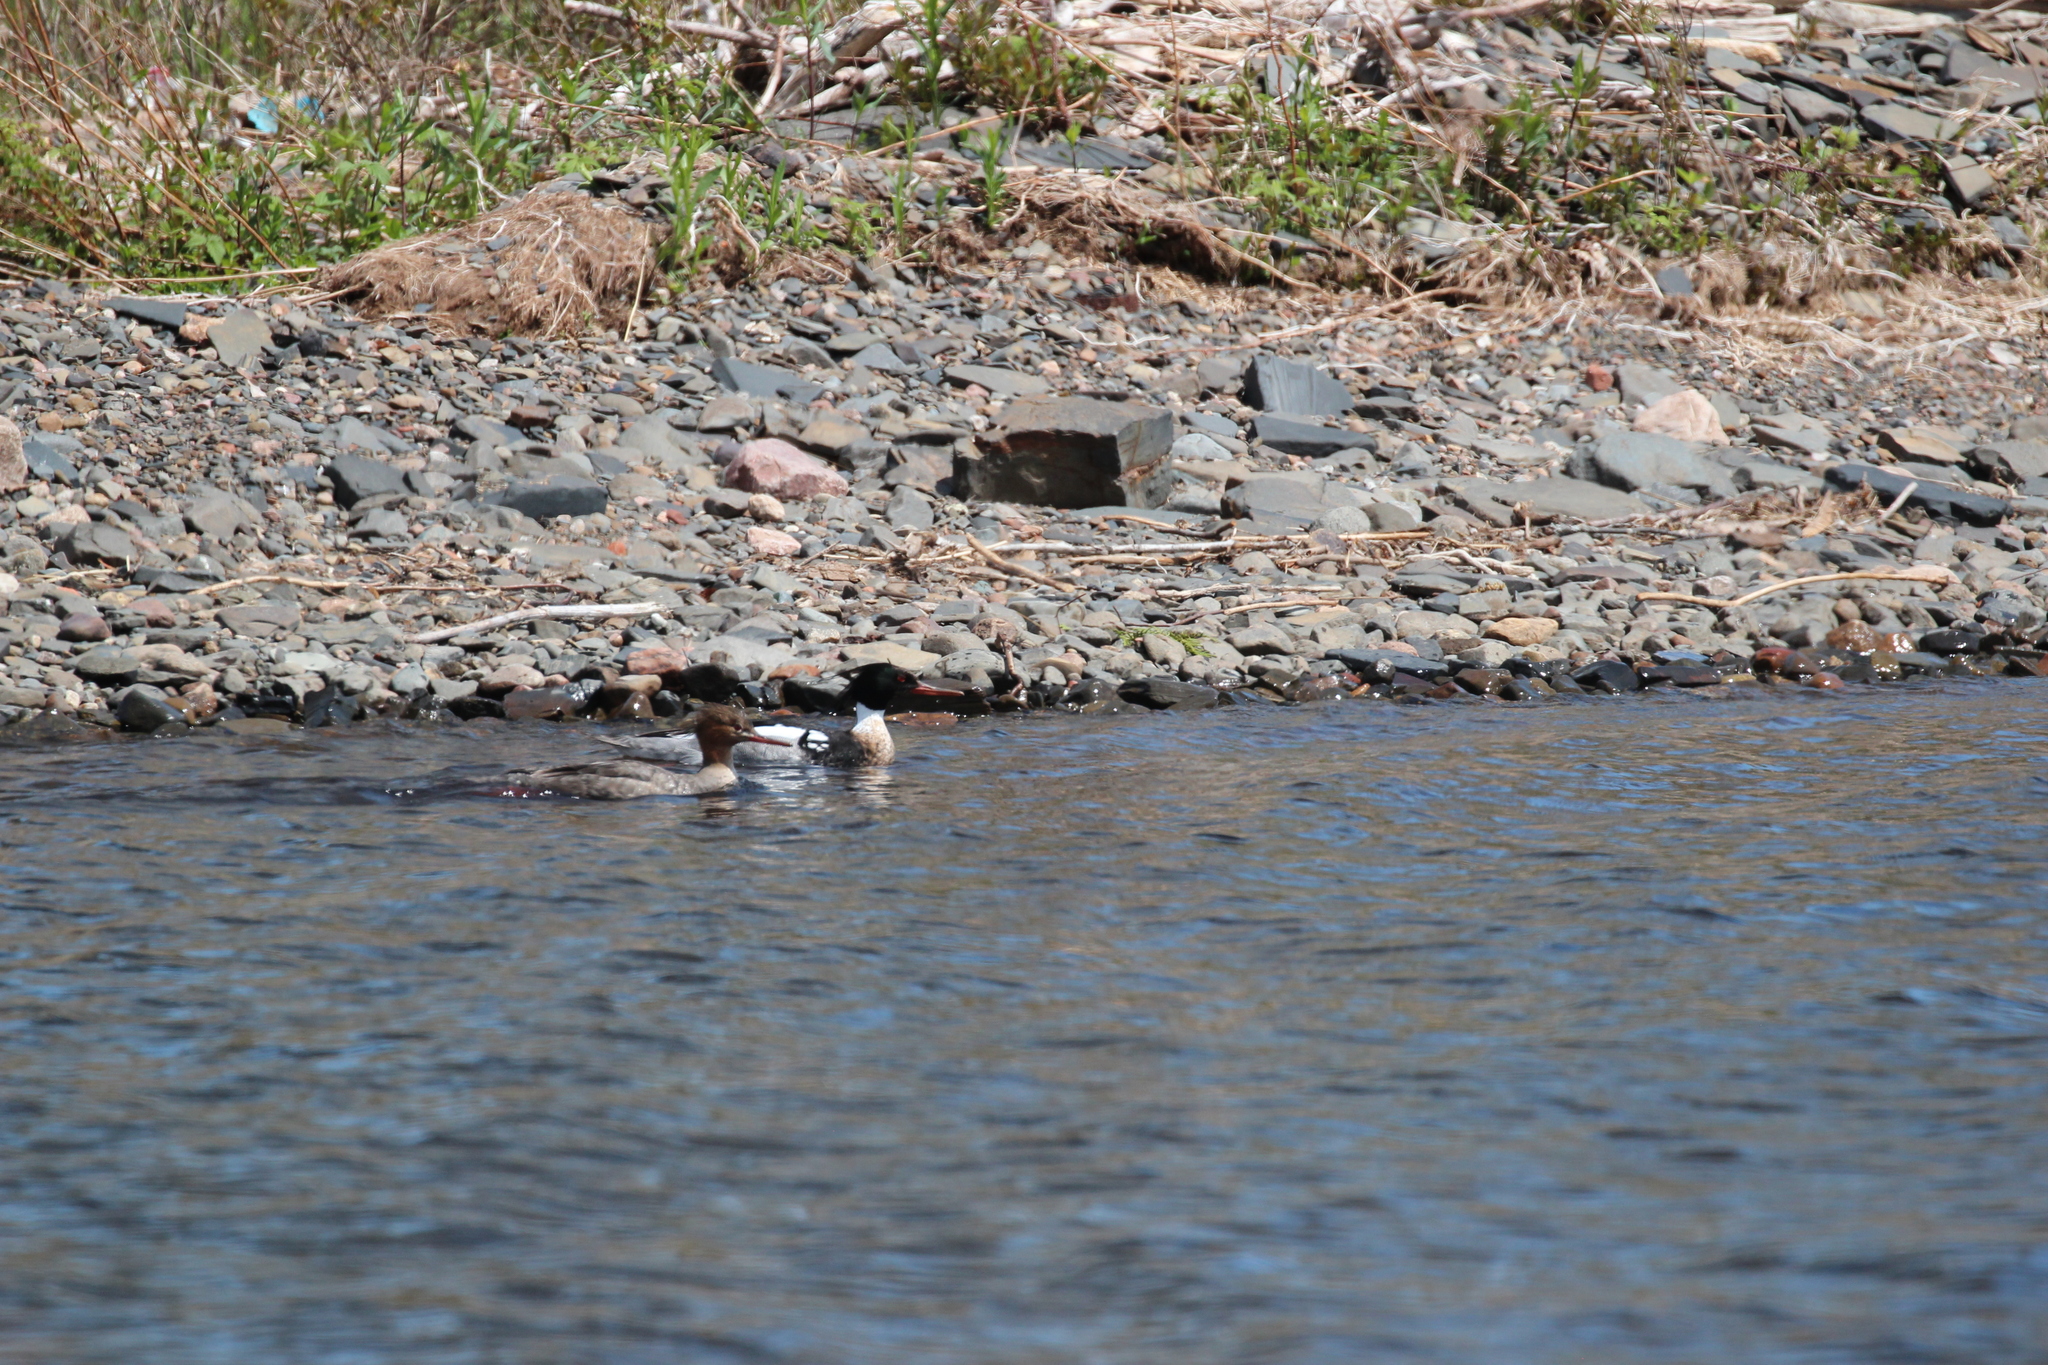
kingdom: Animalia
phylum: Chordata
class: Aves
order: Anseriformes
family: Anatidae
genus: Mergus
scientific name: Mergus serrator
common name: Red-breasted merganser
